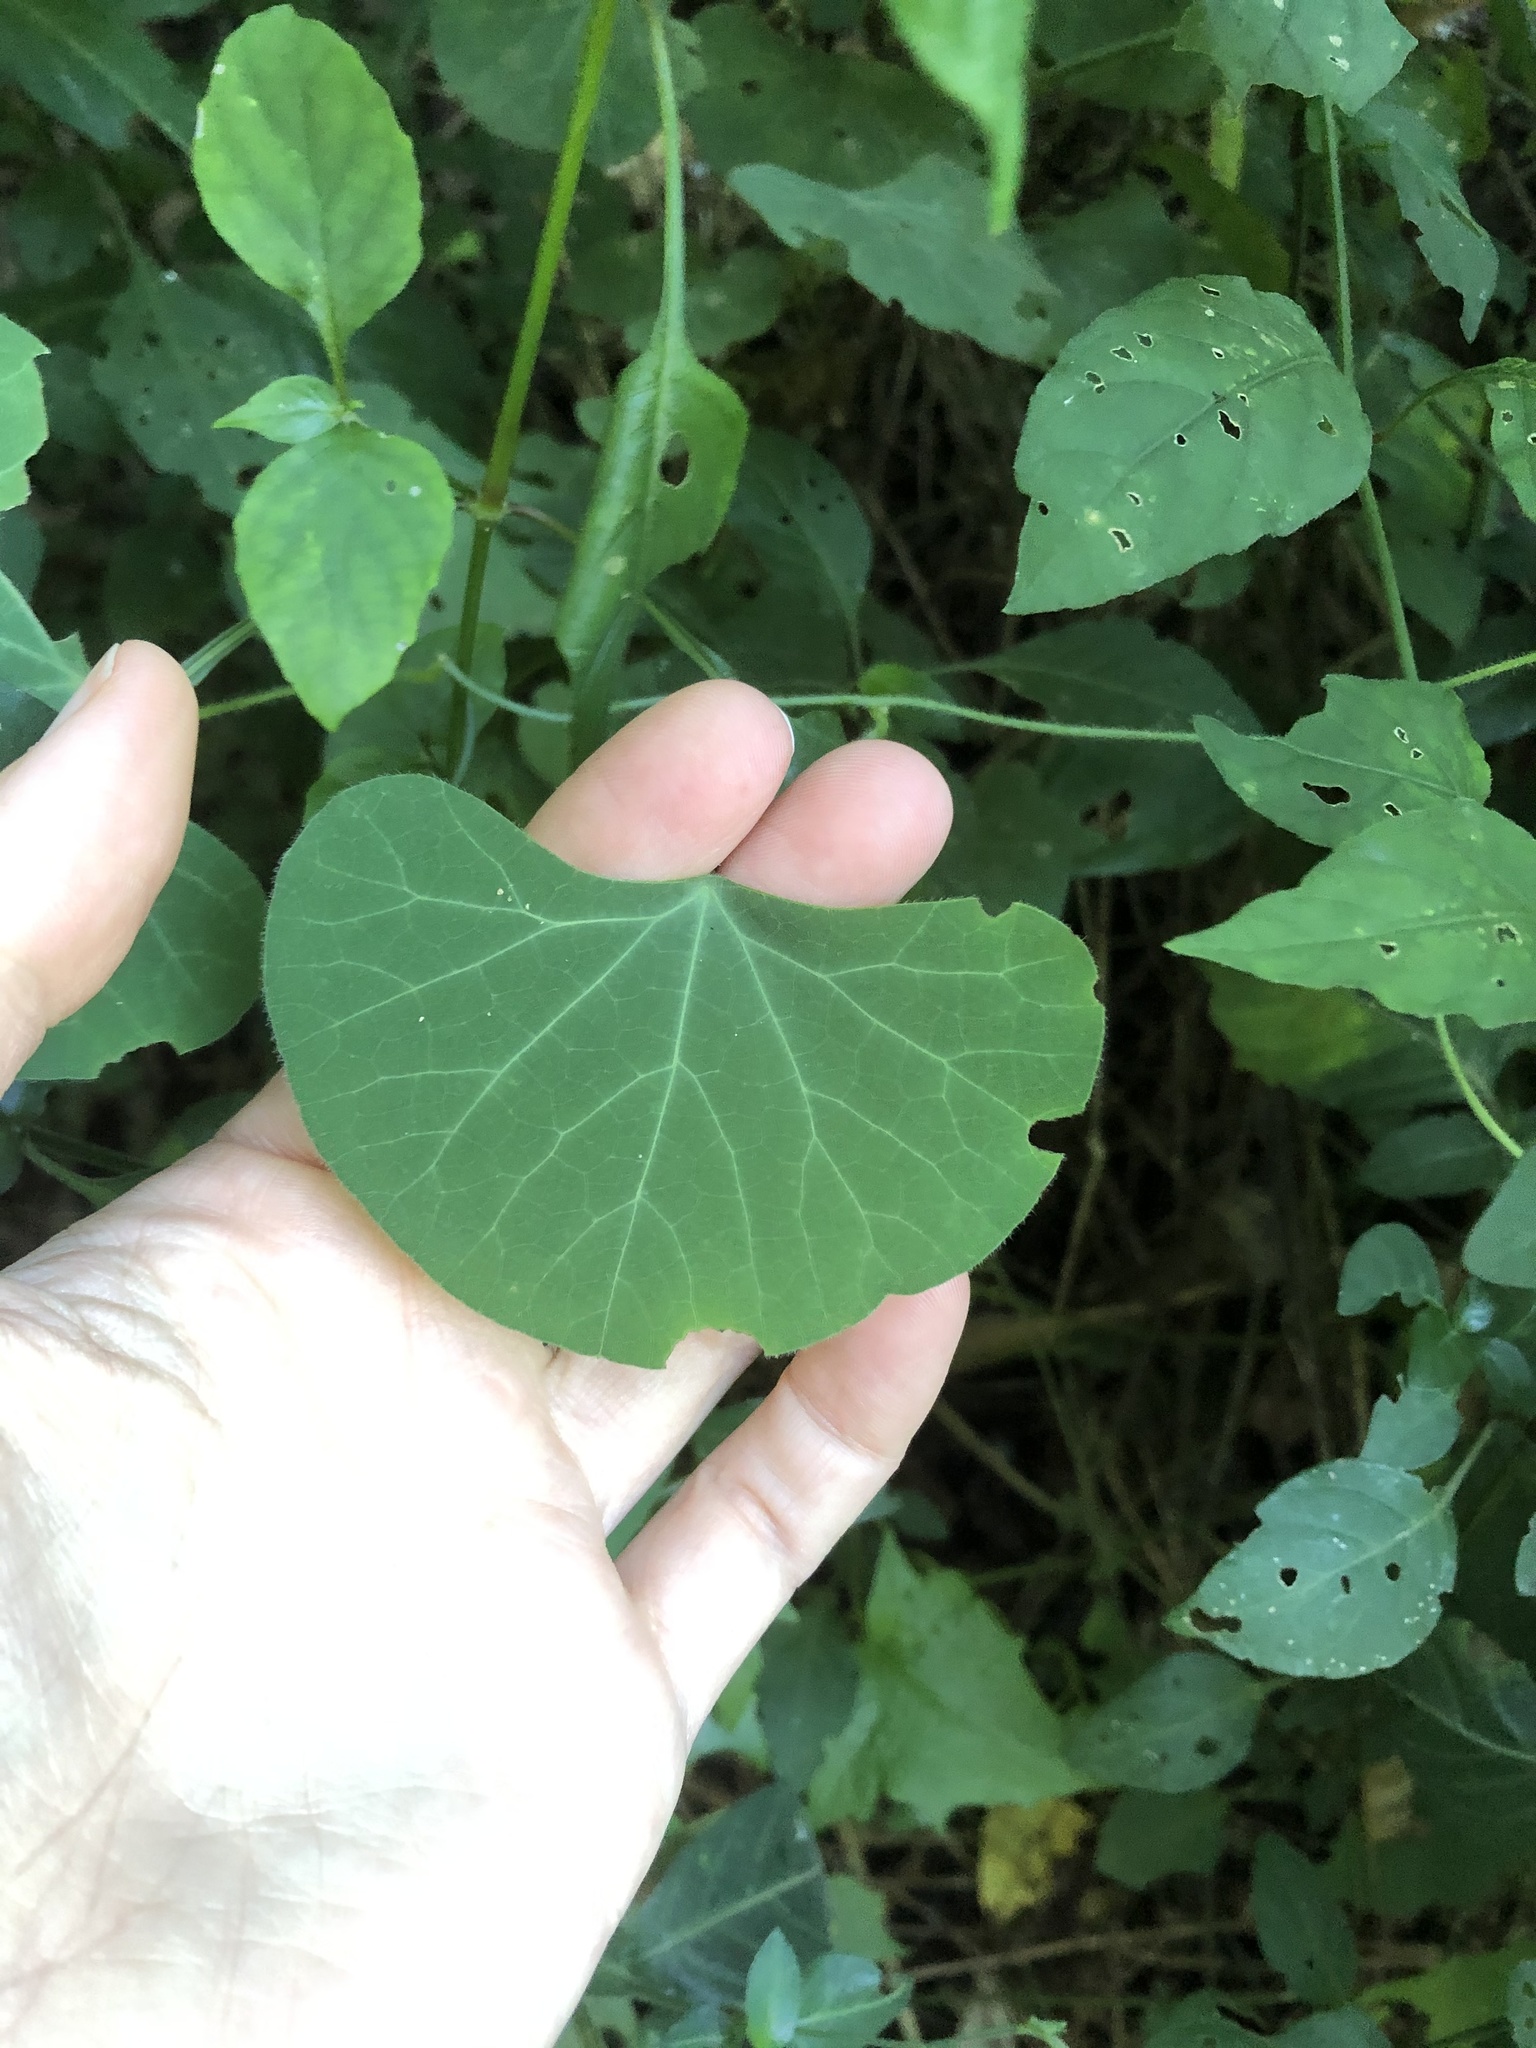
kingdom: Plantae
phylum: Tracheophyta
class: Magnoliopsida
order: Ranunculales
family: Menispermaceae
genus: Cissampelos
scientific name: Cissampelos torulosa
